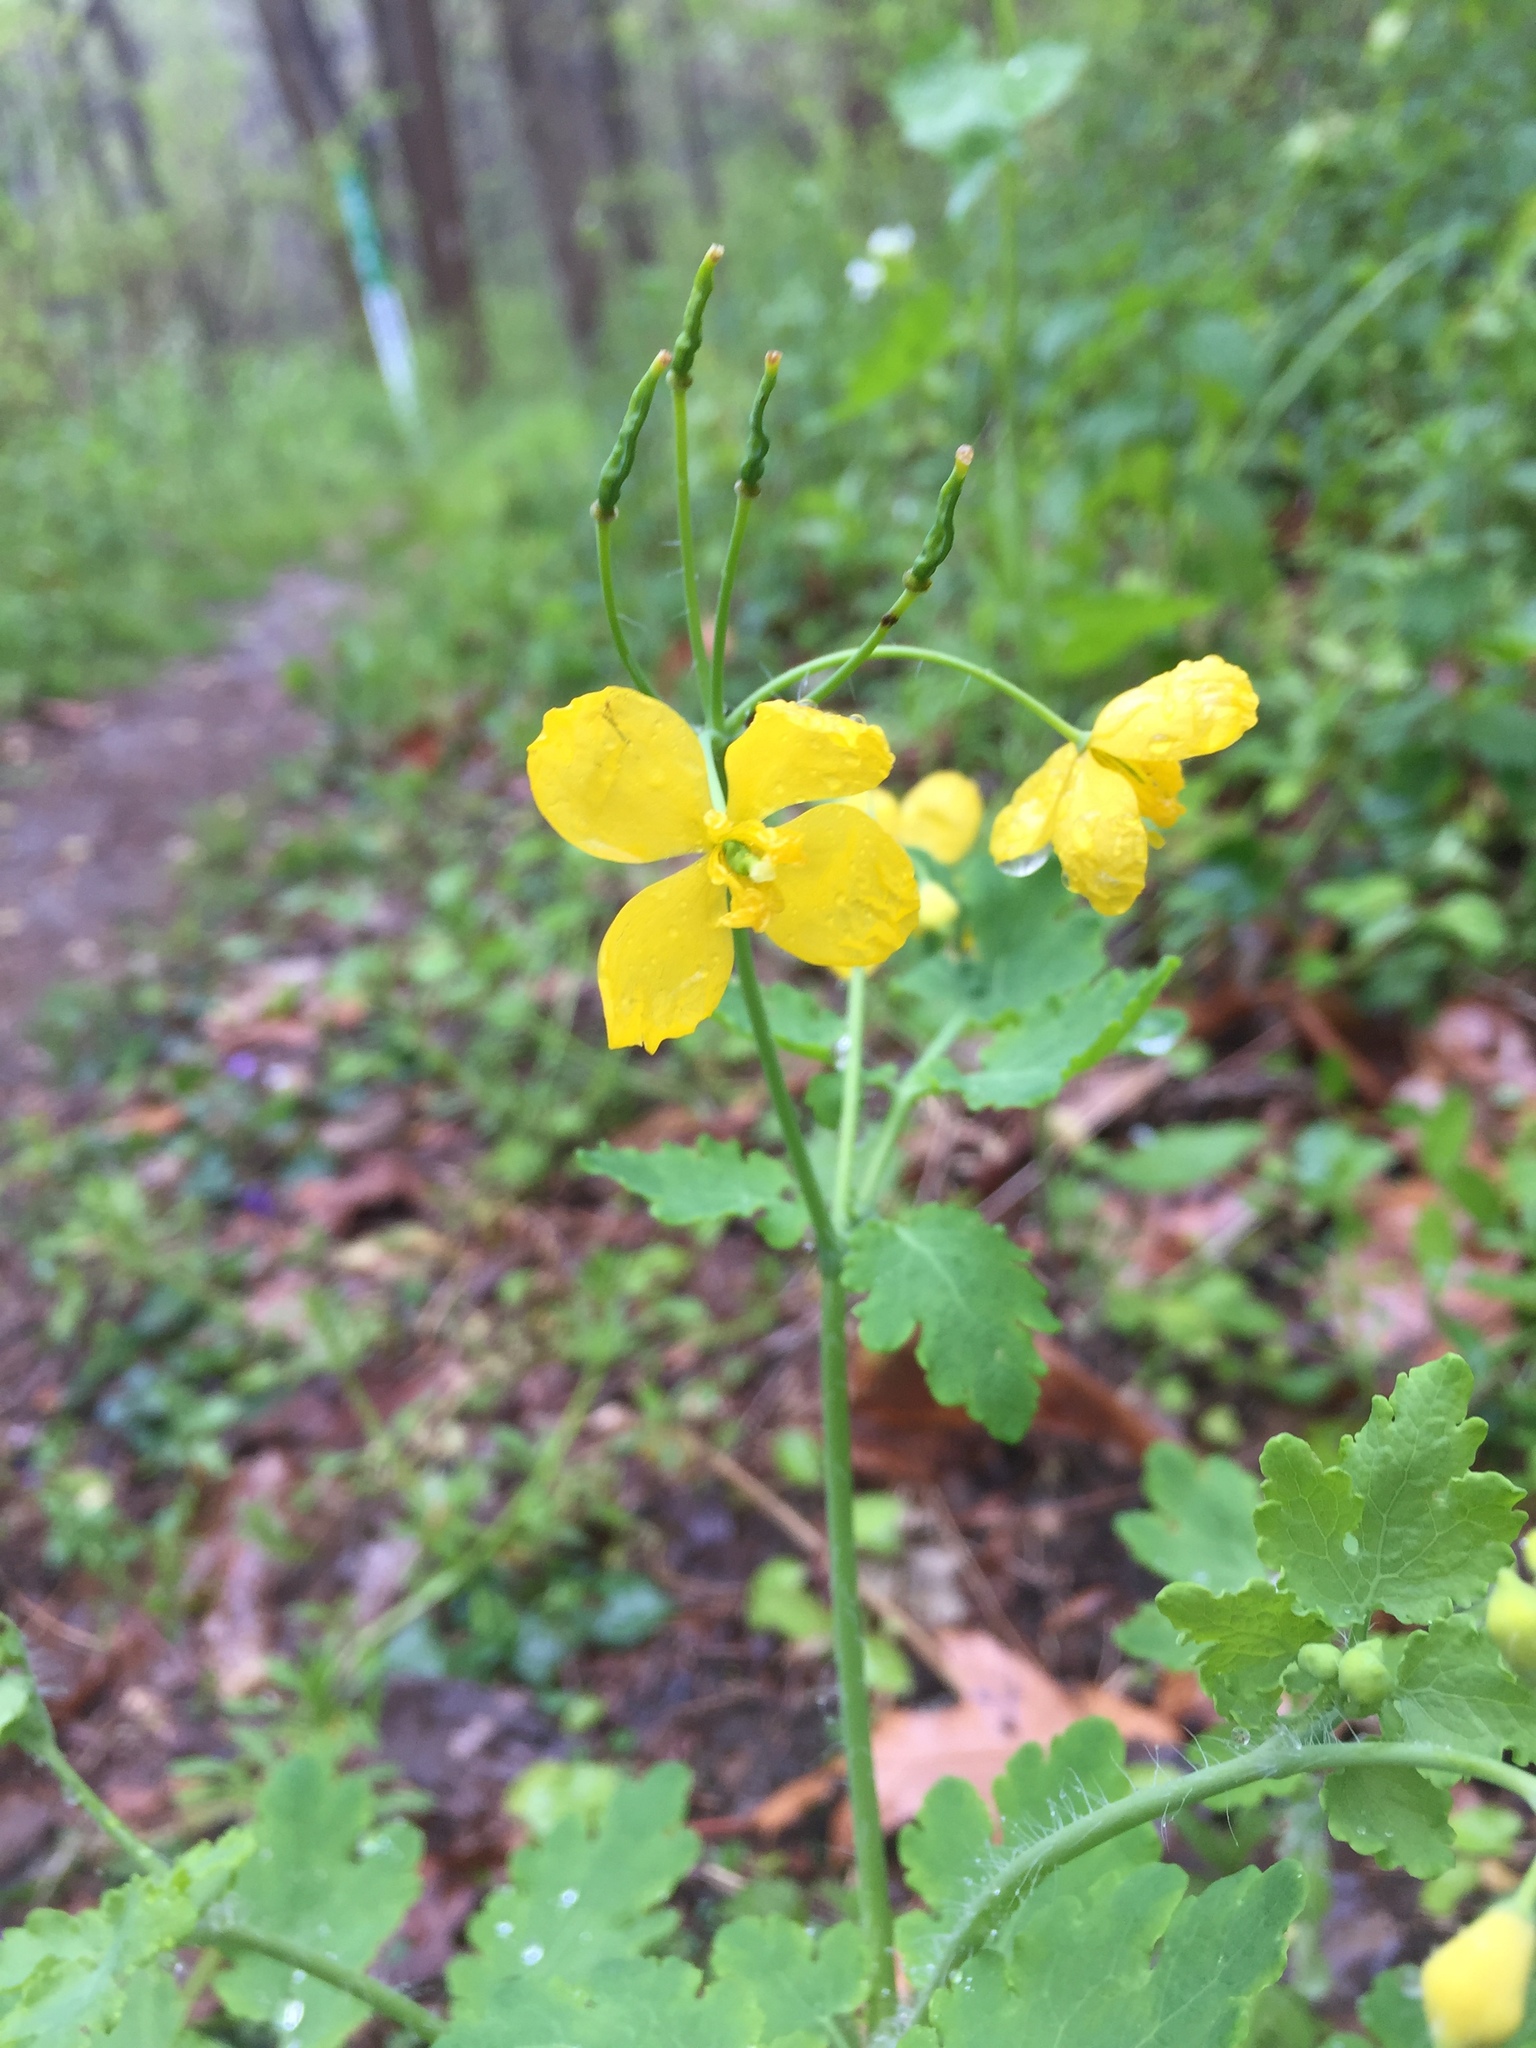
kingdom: Plantae
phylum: Tracheophyta
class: Magnoliopsida
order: Ranunculales
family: Papaveraceae
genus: Chelidonium
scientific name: Chelidonium majus
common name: Greater celandine
